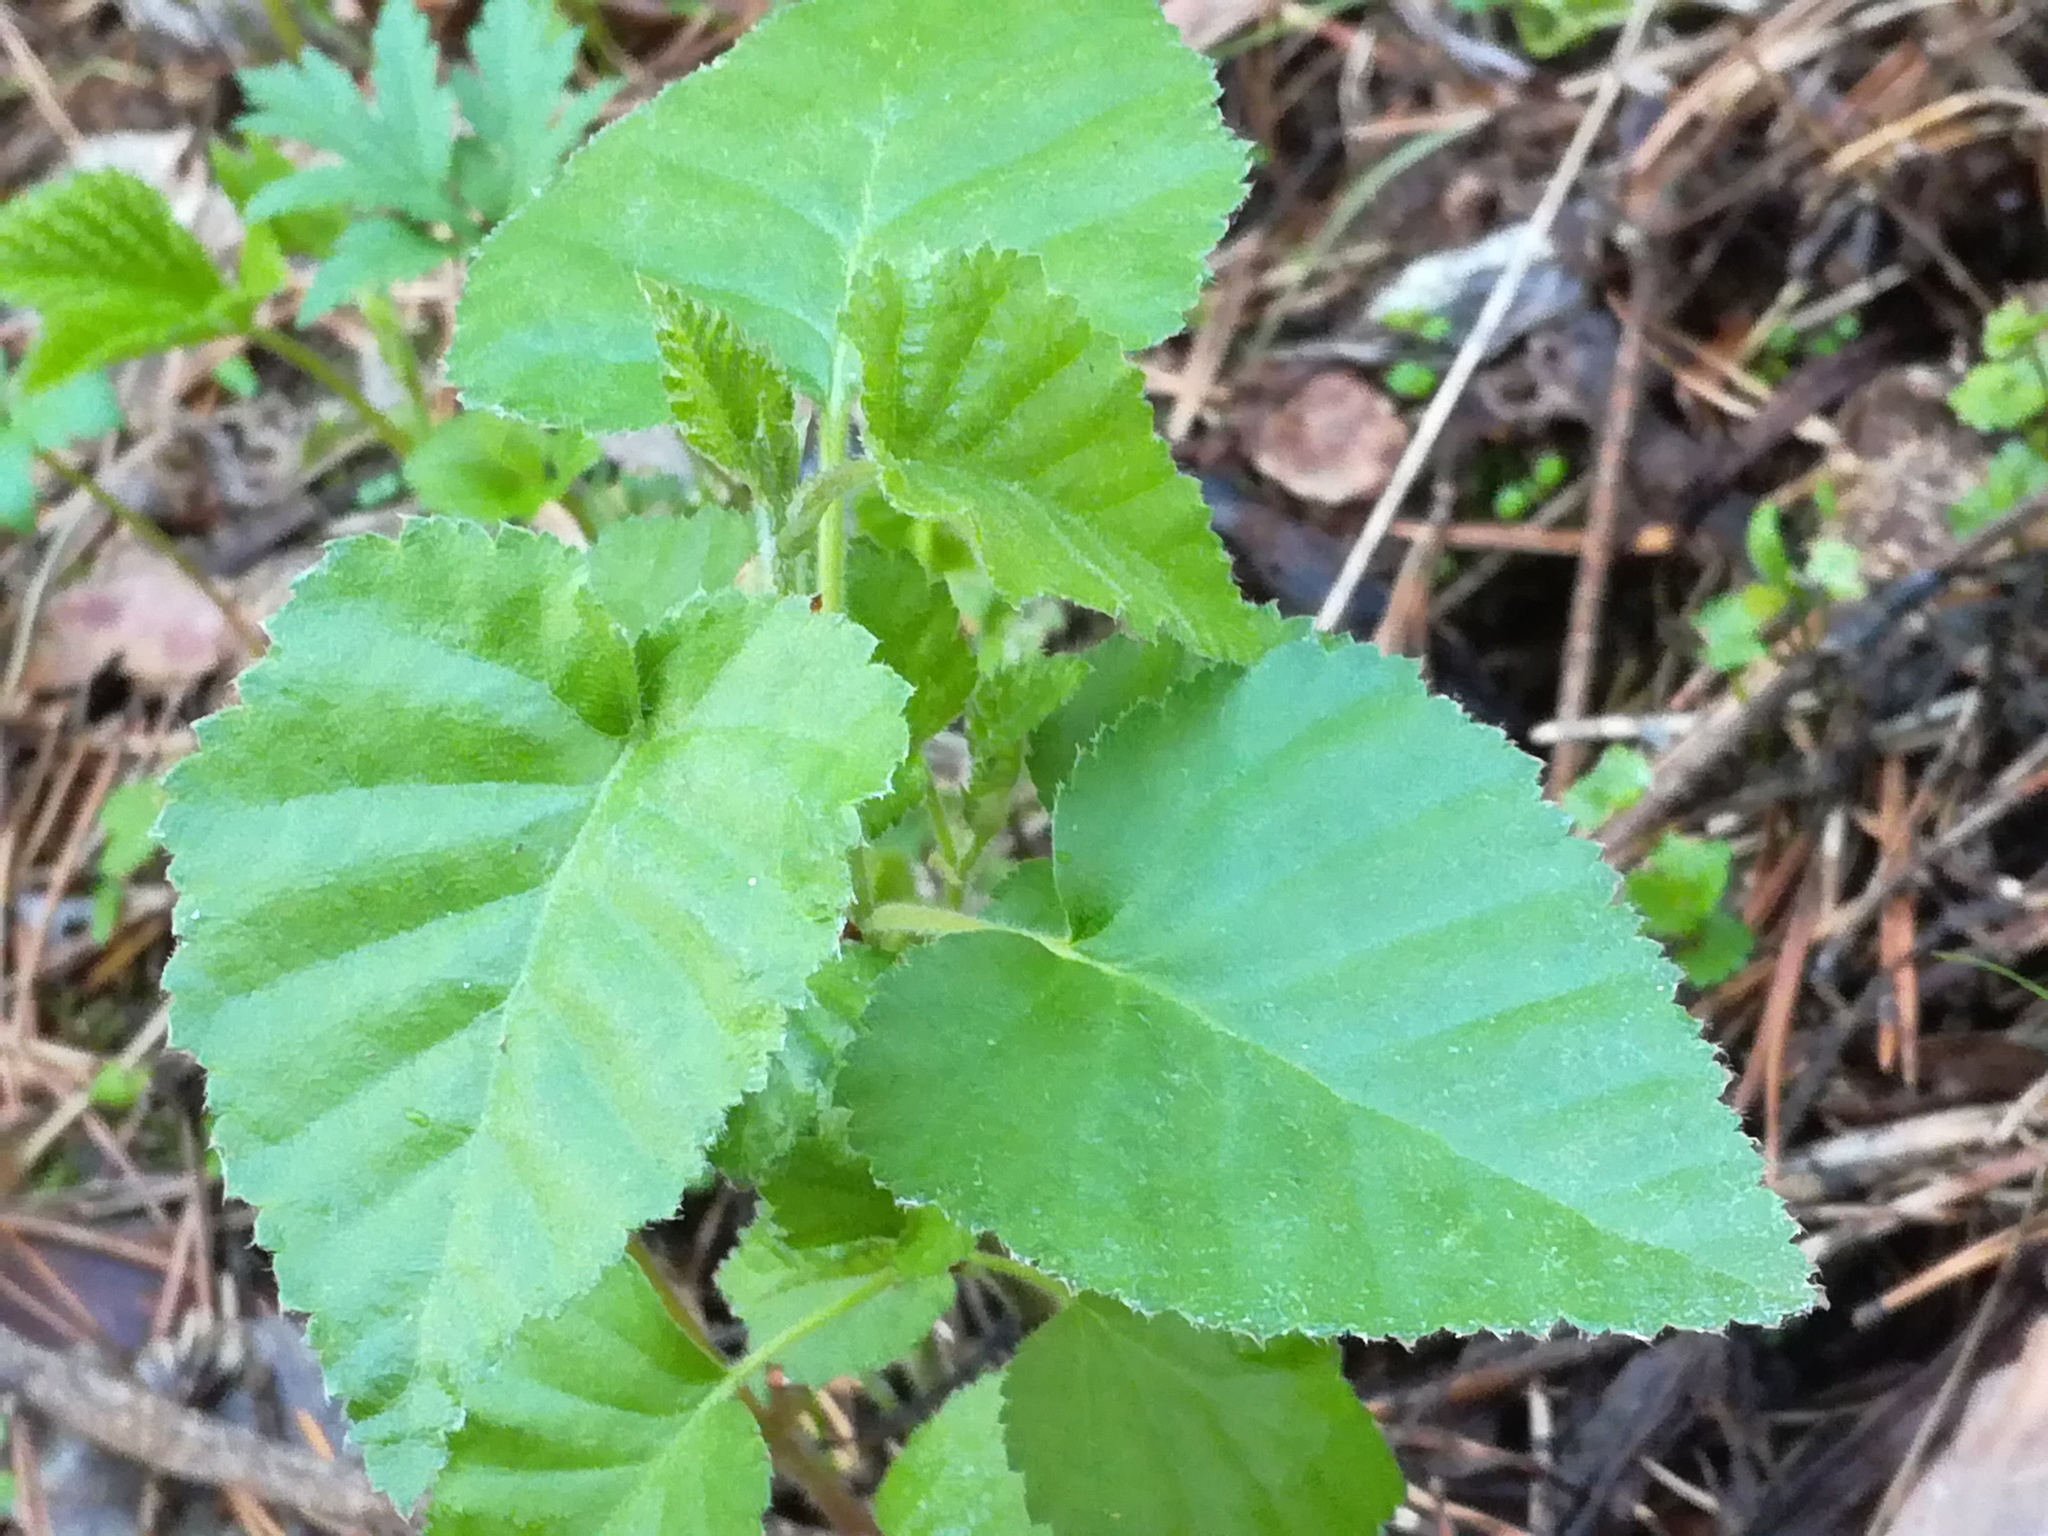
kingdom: Plantae
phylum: Tracheophyta
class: Magnoliopsida
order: Fagales
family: Betulaceae
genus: Betula
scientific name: Betula pubescens
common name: Downy birch
